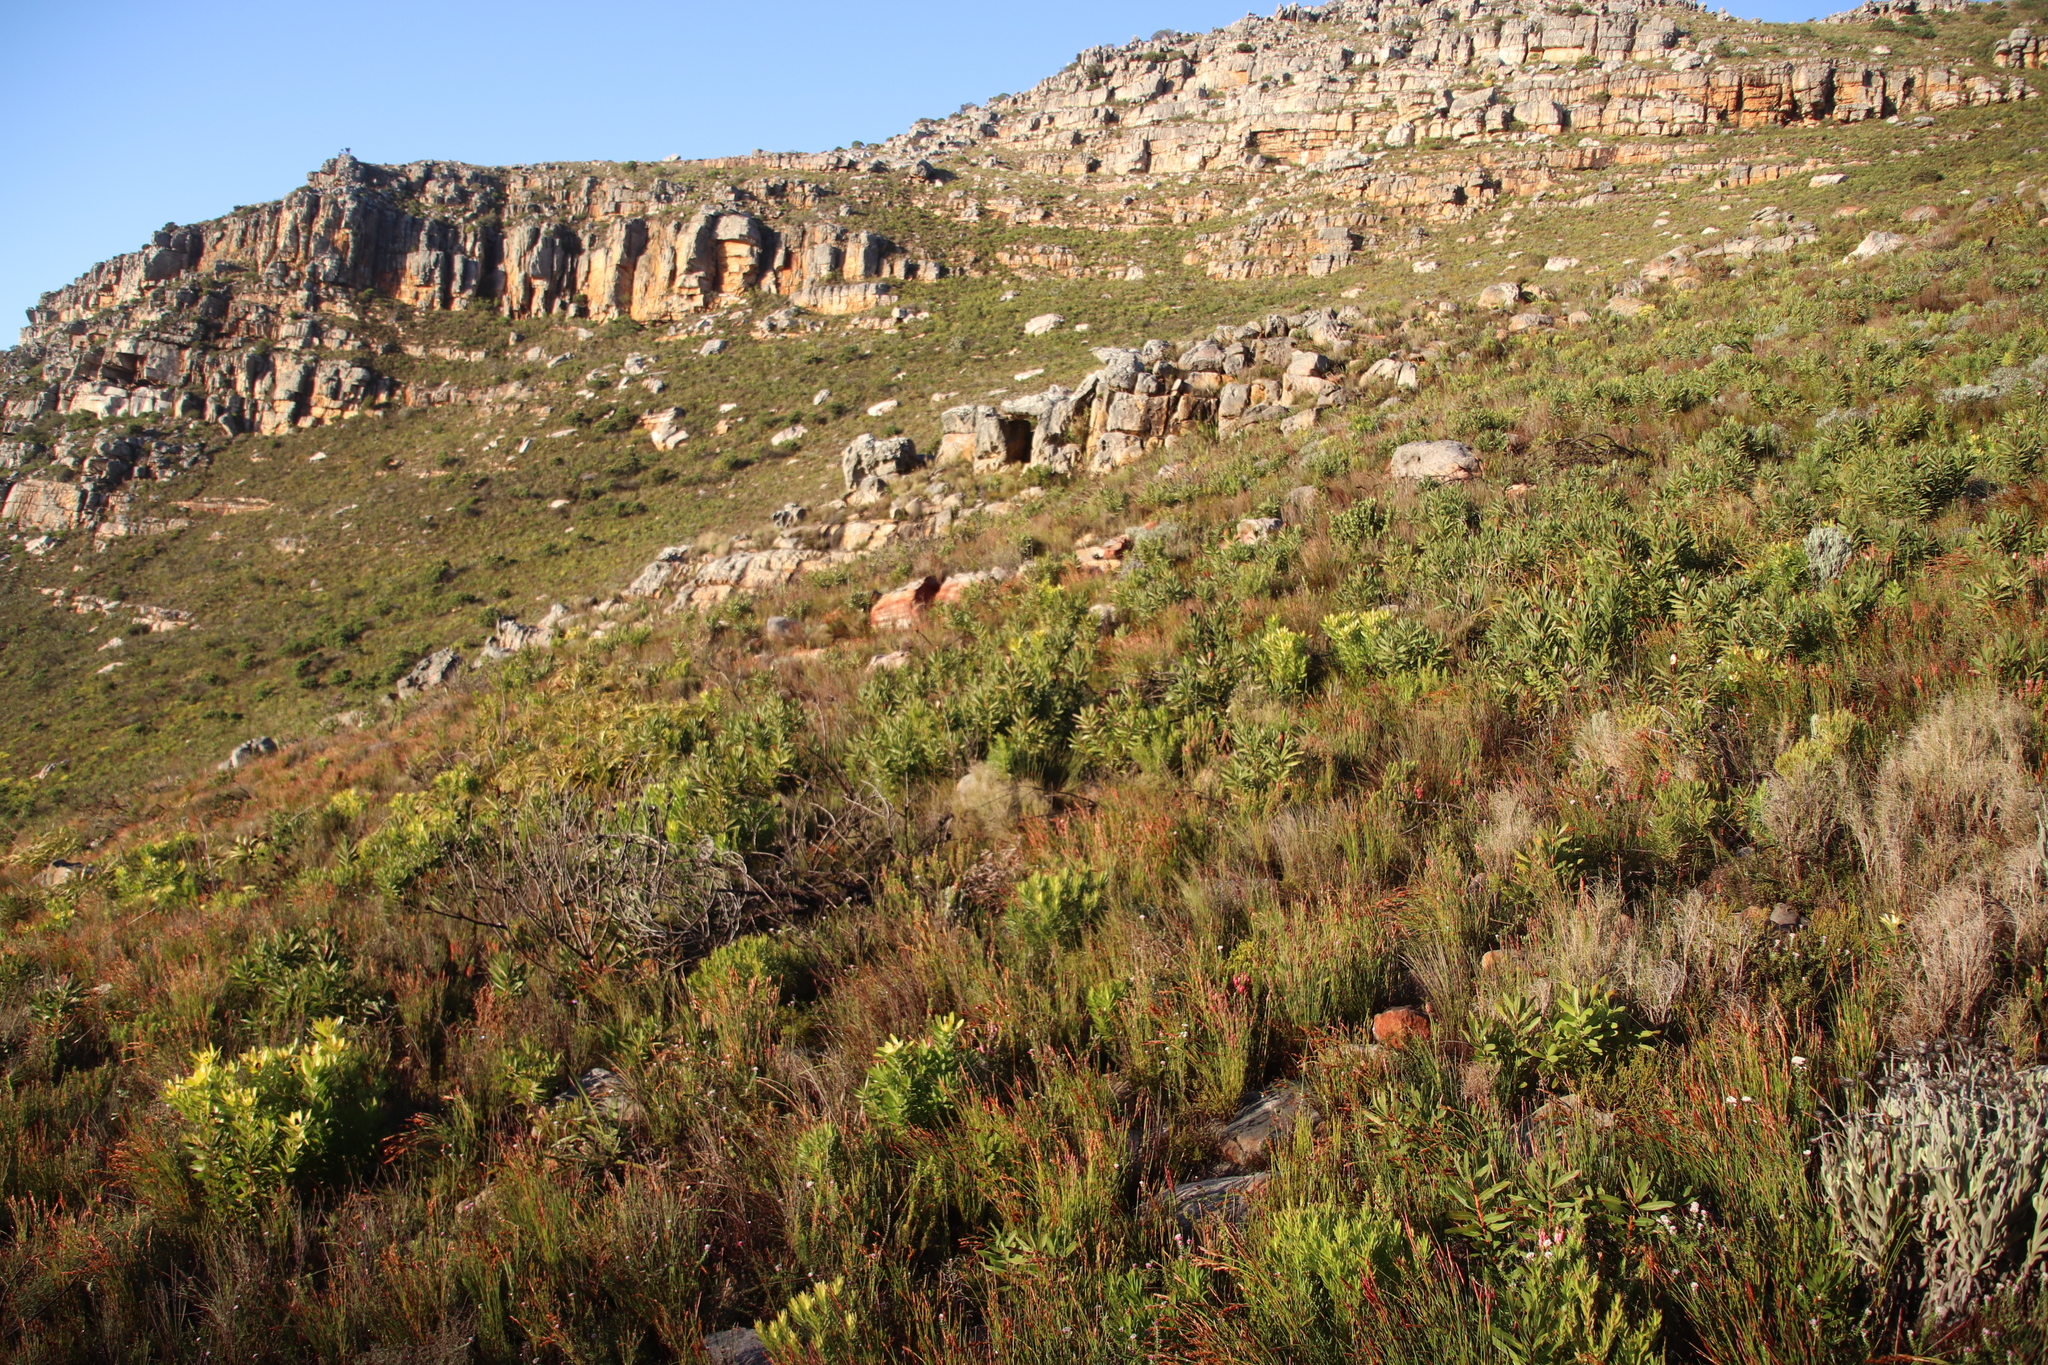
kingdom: Plantae
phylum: Tracheophyta
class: Magnoliopsida
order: Proteales
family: Proteaceae
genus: Protea
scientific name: Protea lepidocarpodendron
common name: Black-bearded protea
